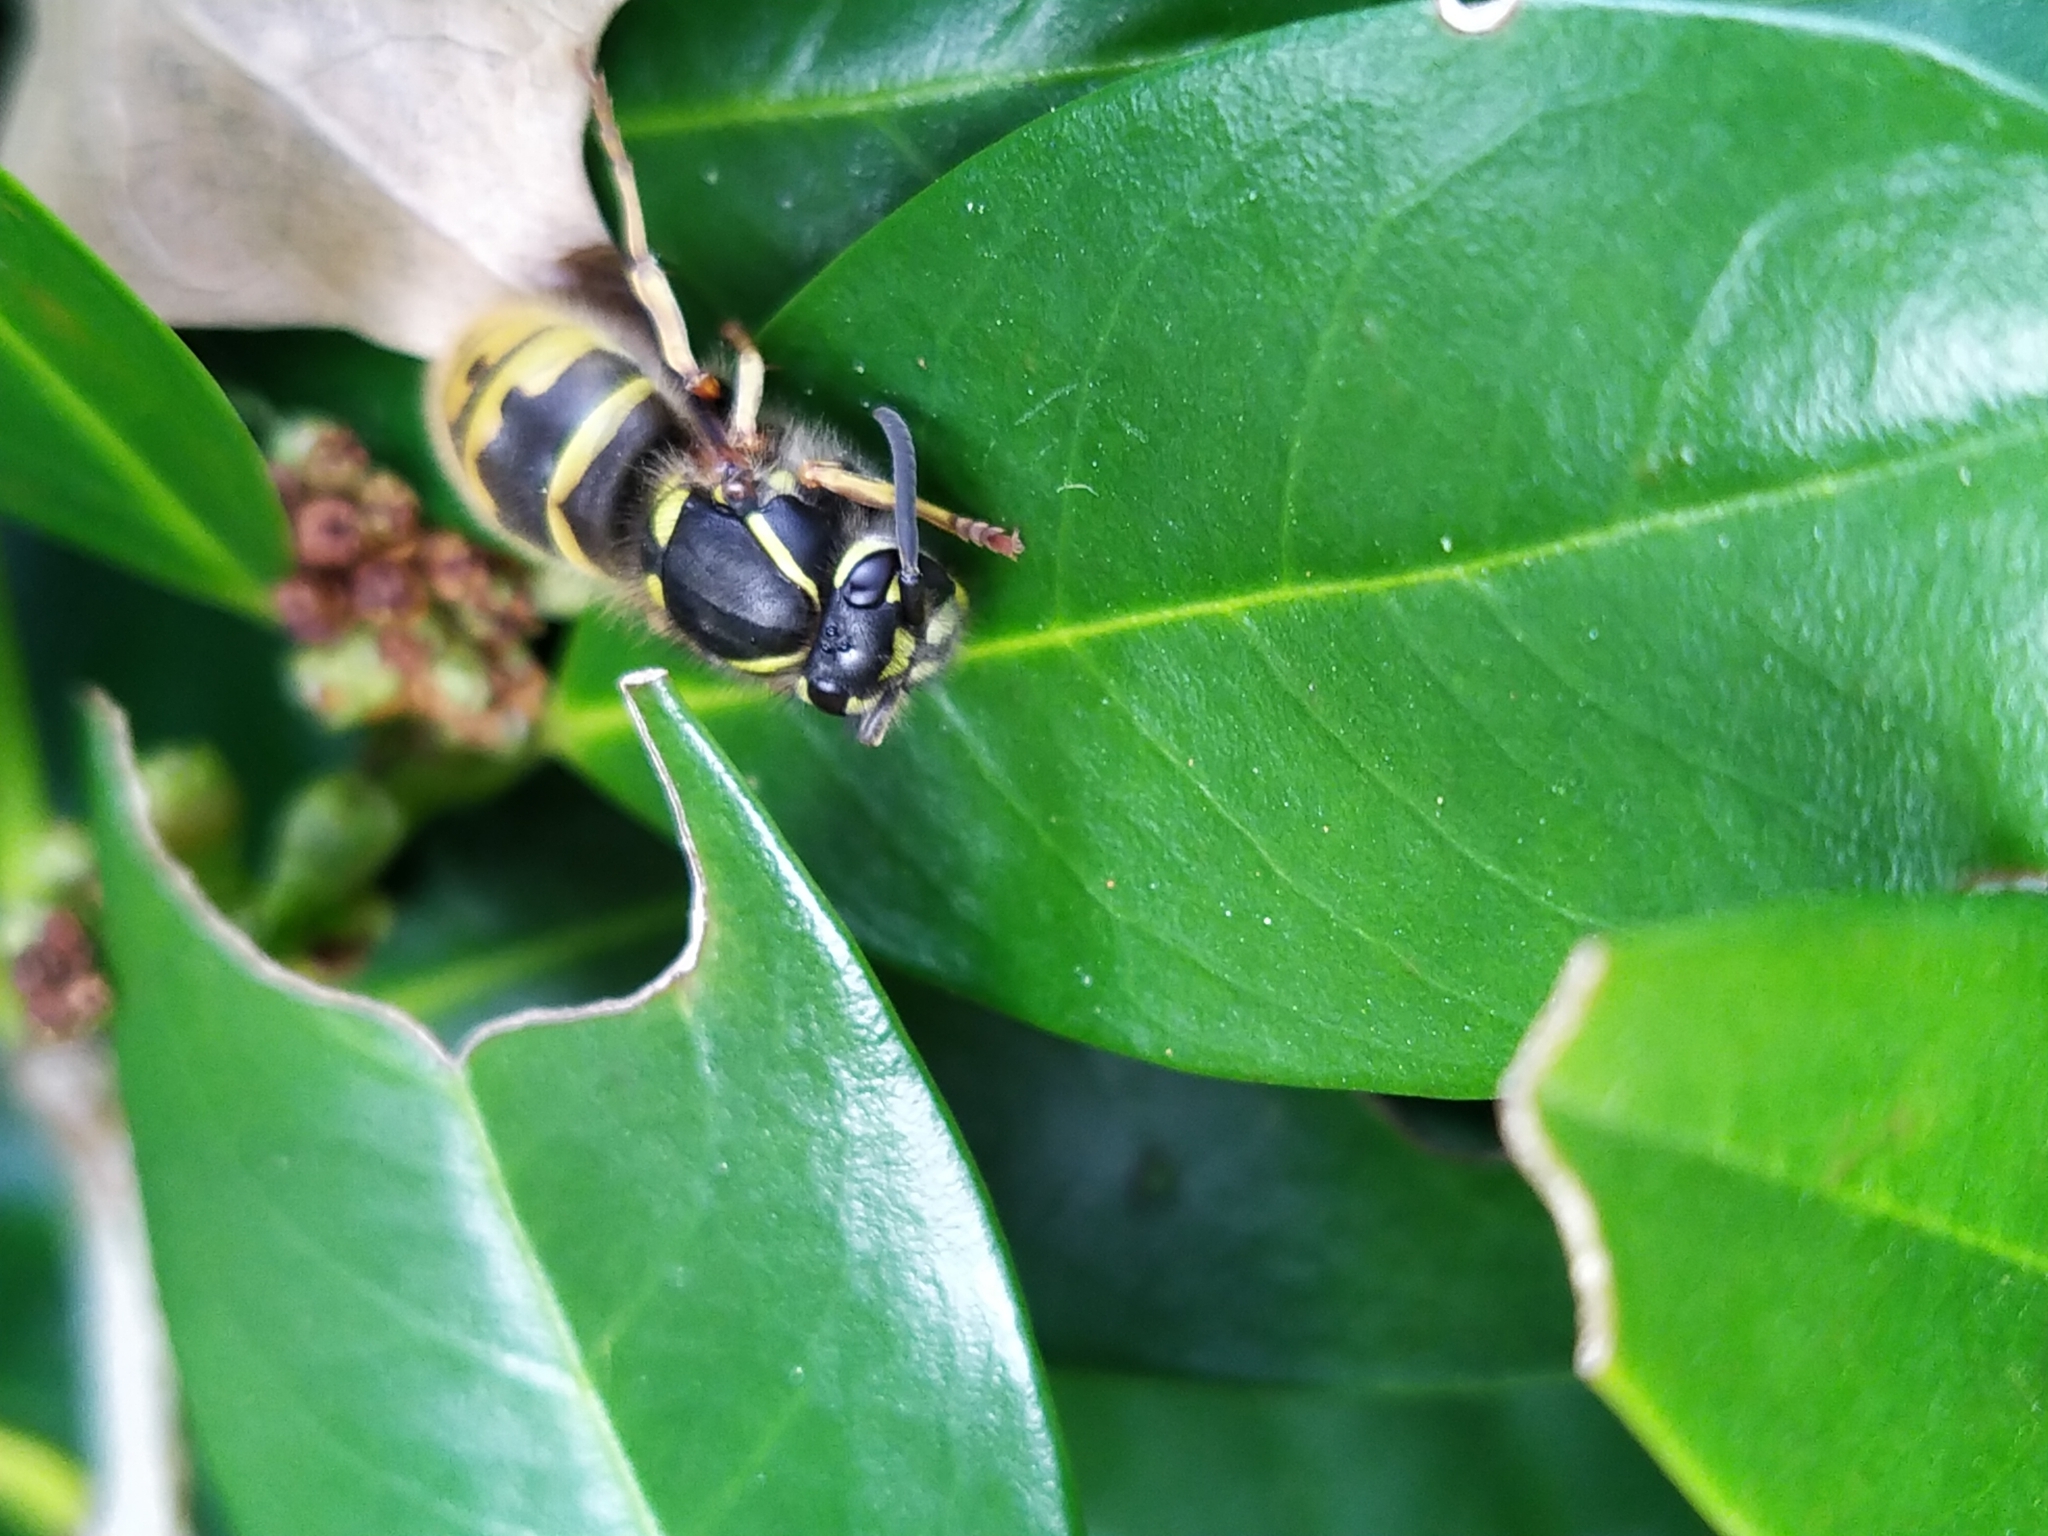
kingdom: Animalia
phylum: Arthropoda
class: Insecta
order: Hymenoptera
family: Vespidae
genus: Vespula
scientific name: Vespula vulgaris
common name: Common wasp
